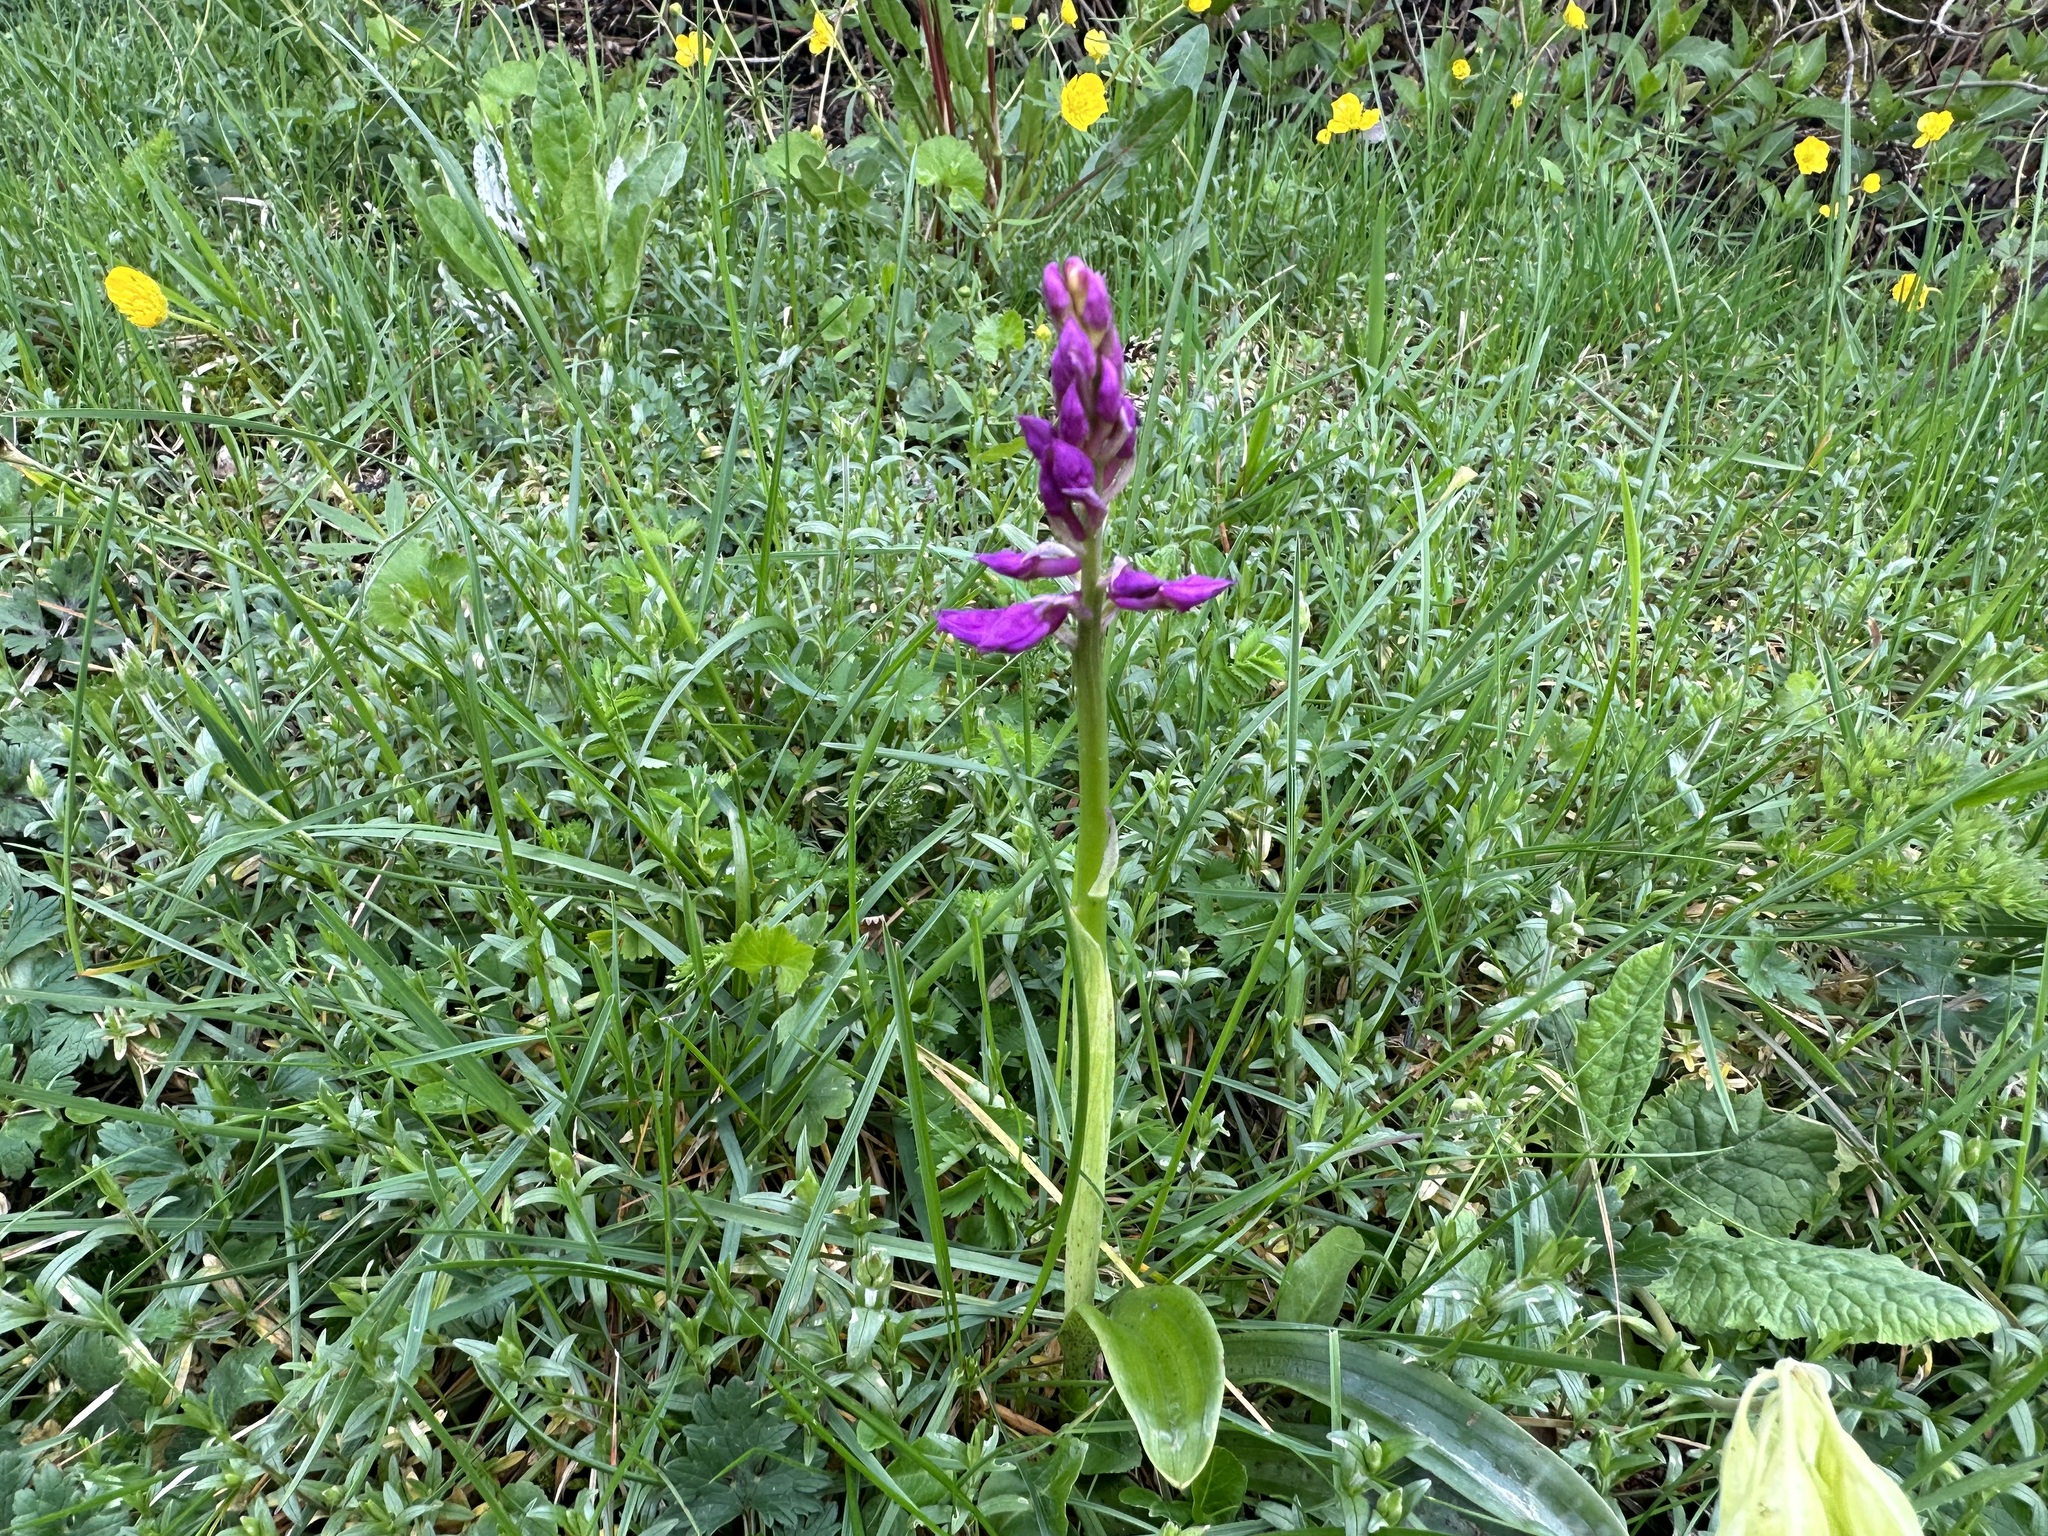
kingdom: Plantae
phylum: Tracheophyta
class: Liliopsida
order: Asparagales
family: Orchidaceae
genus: Orchis
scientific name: Orchis mascula
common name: Early-purple orchid
